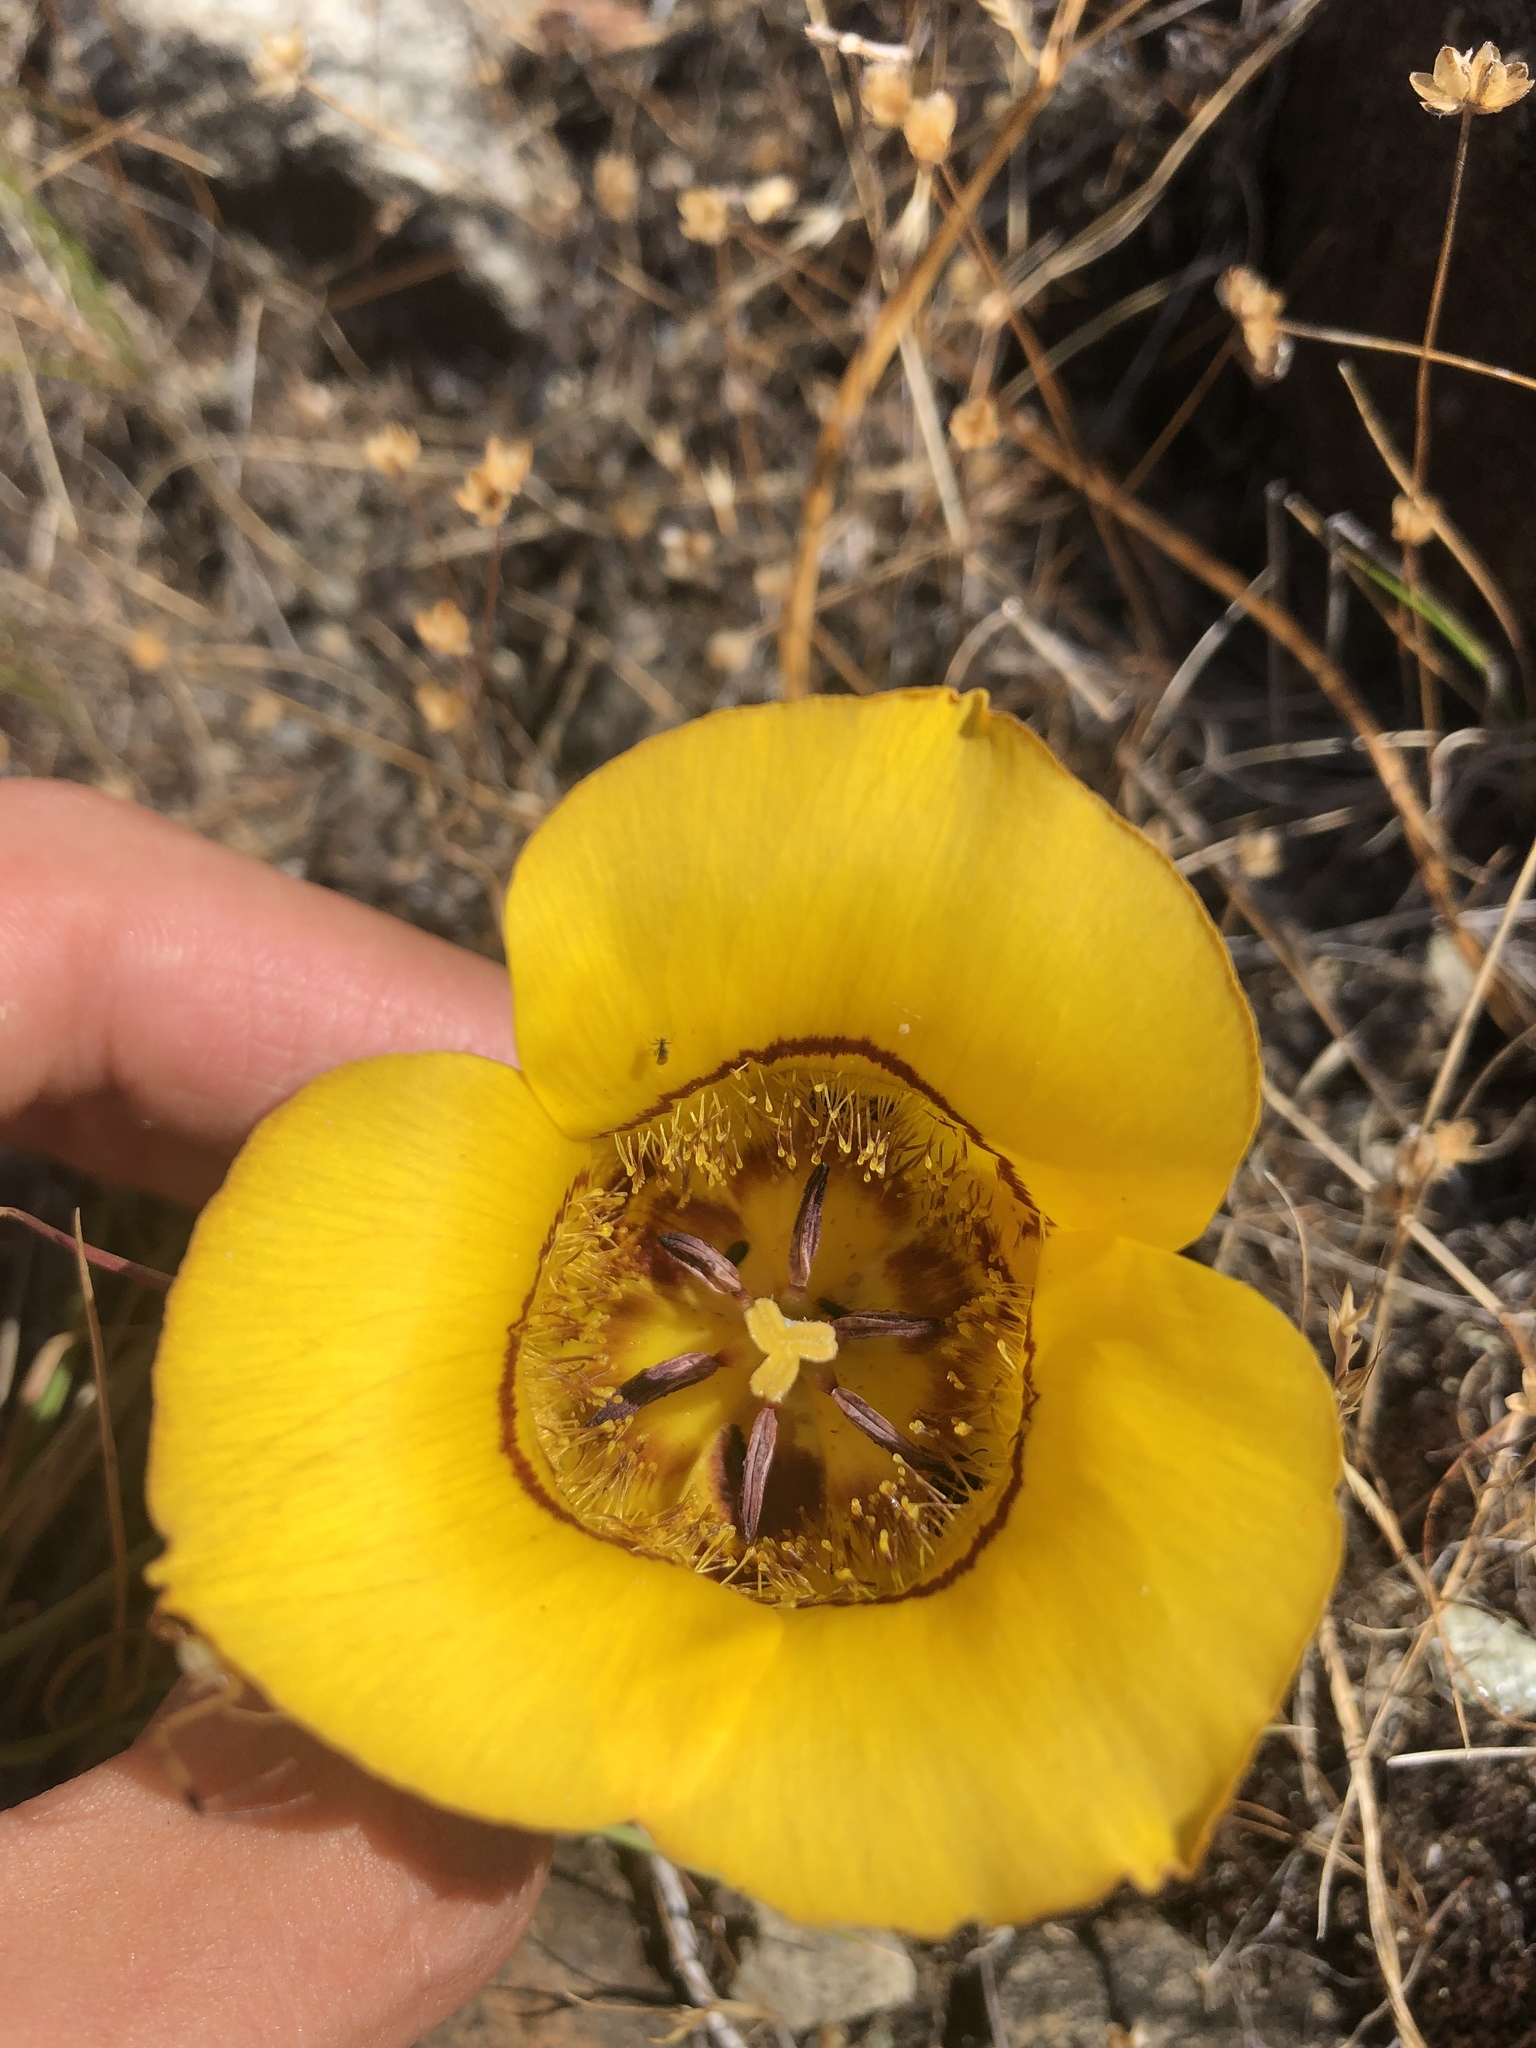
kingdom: Plantae
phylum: Tracheophyta
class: Liliopsida
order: Liliales
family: Liliaceae
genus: Calochortus
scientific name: Calochortus clavatus
